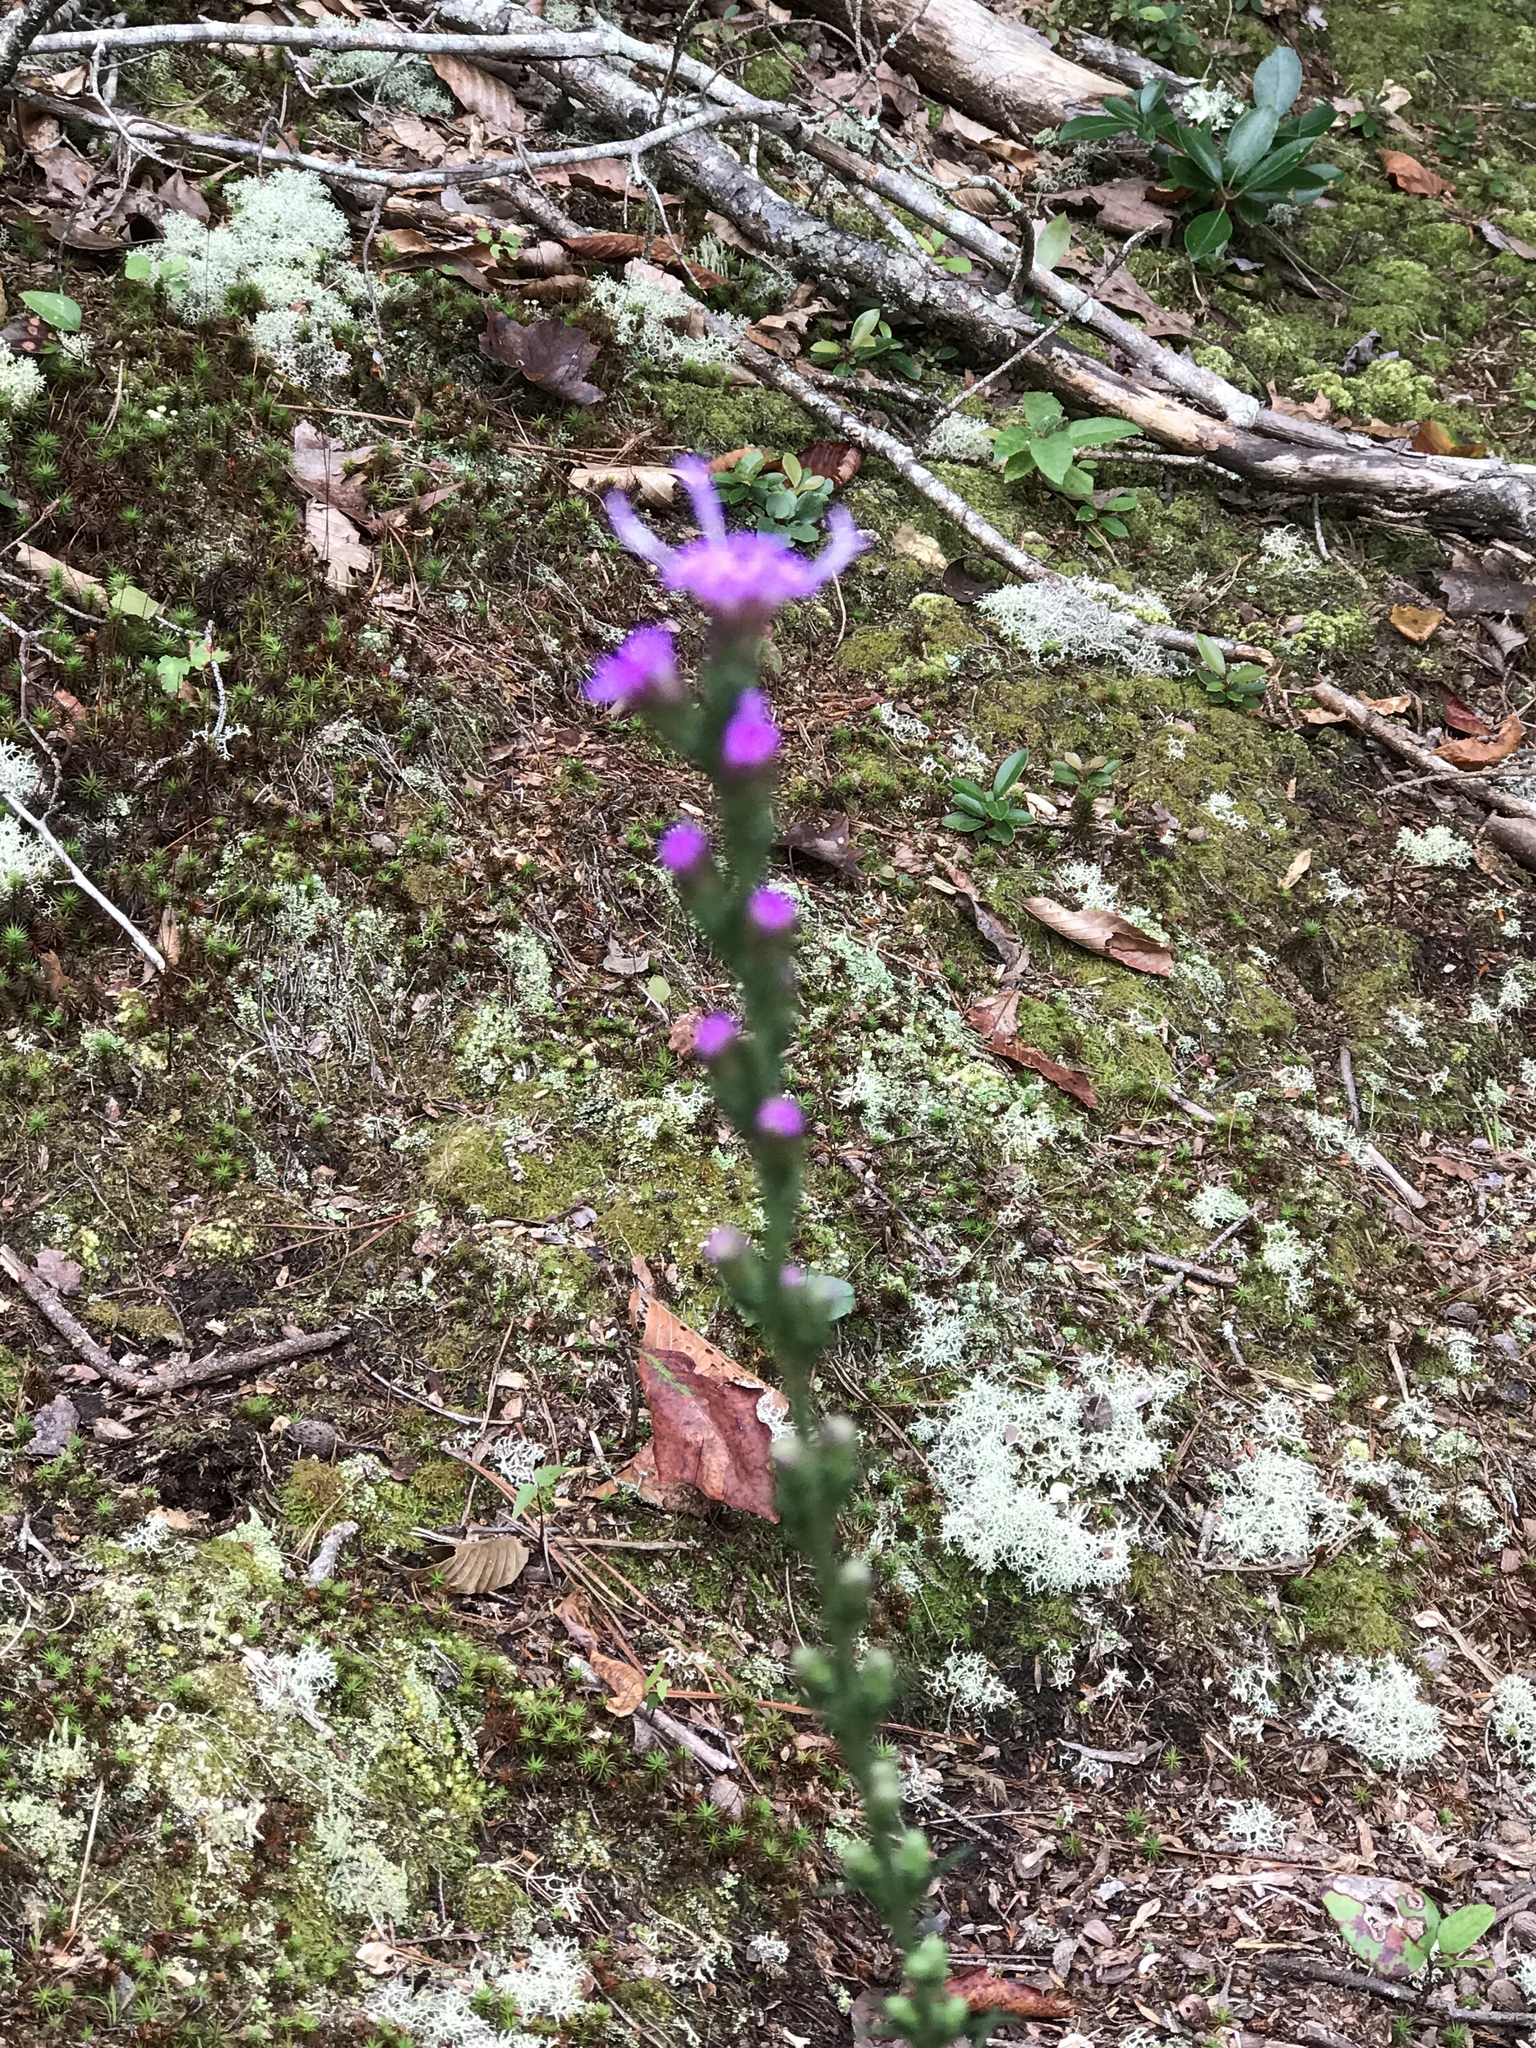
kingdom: Plantae
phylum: Tracheophyta
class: Magnoliopsida
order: Asterales
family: Asteraceae
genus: Liatris
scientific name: Liatris pilosa
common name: Grass-leaf gayfeather
